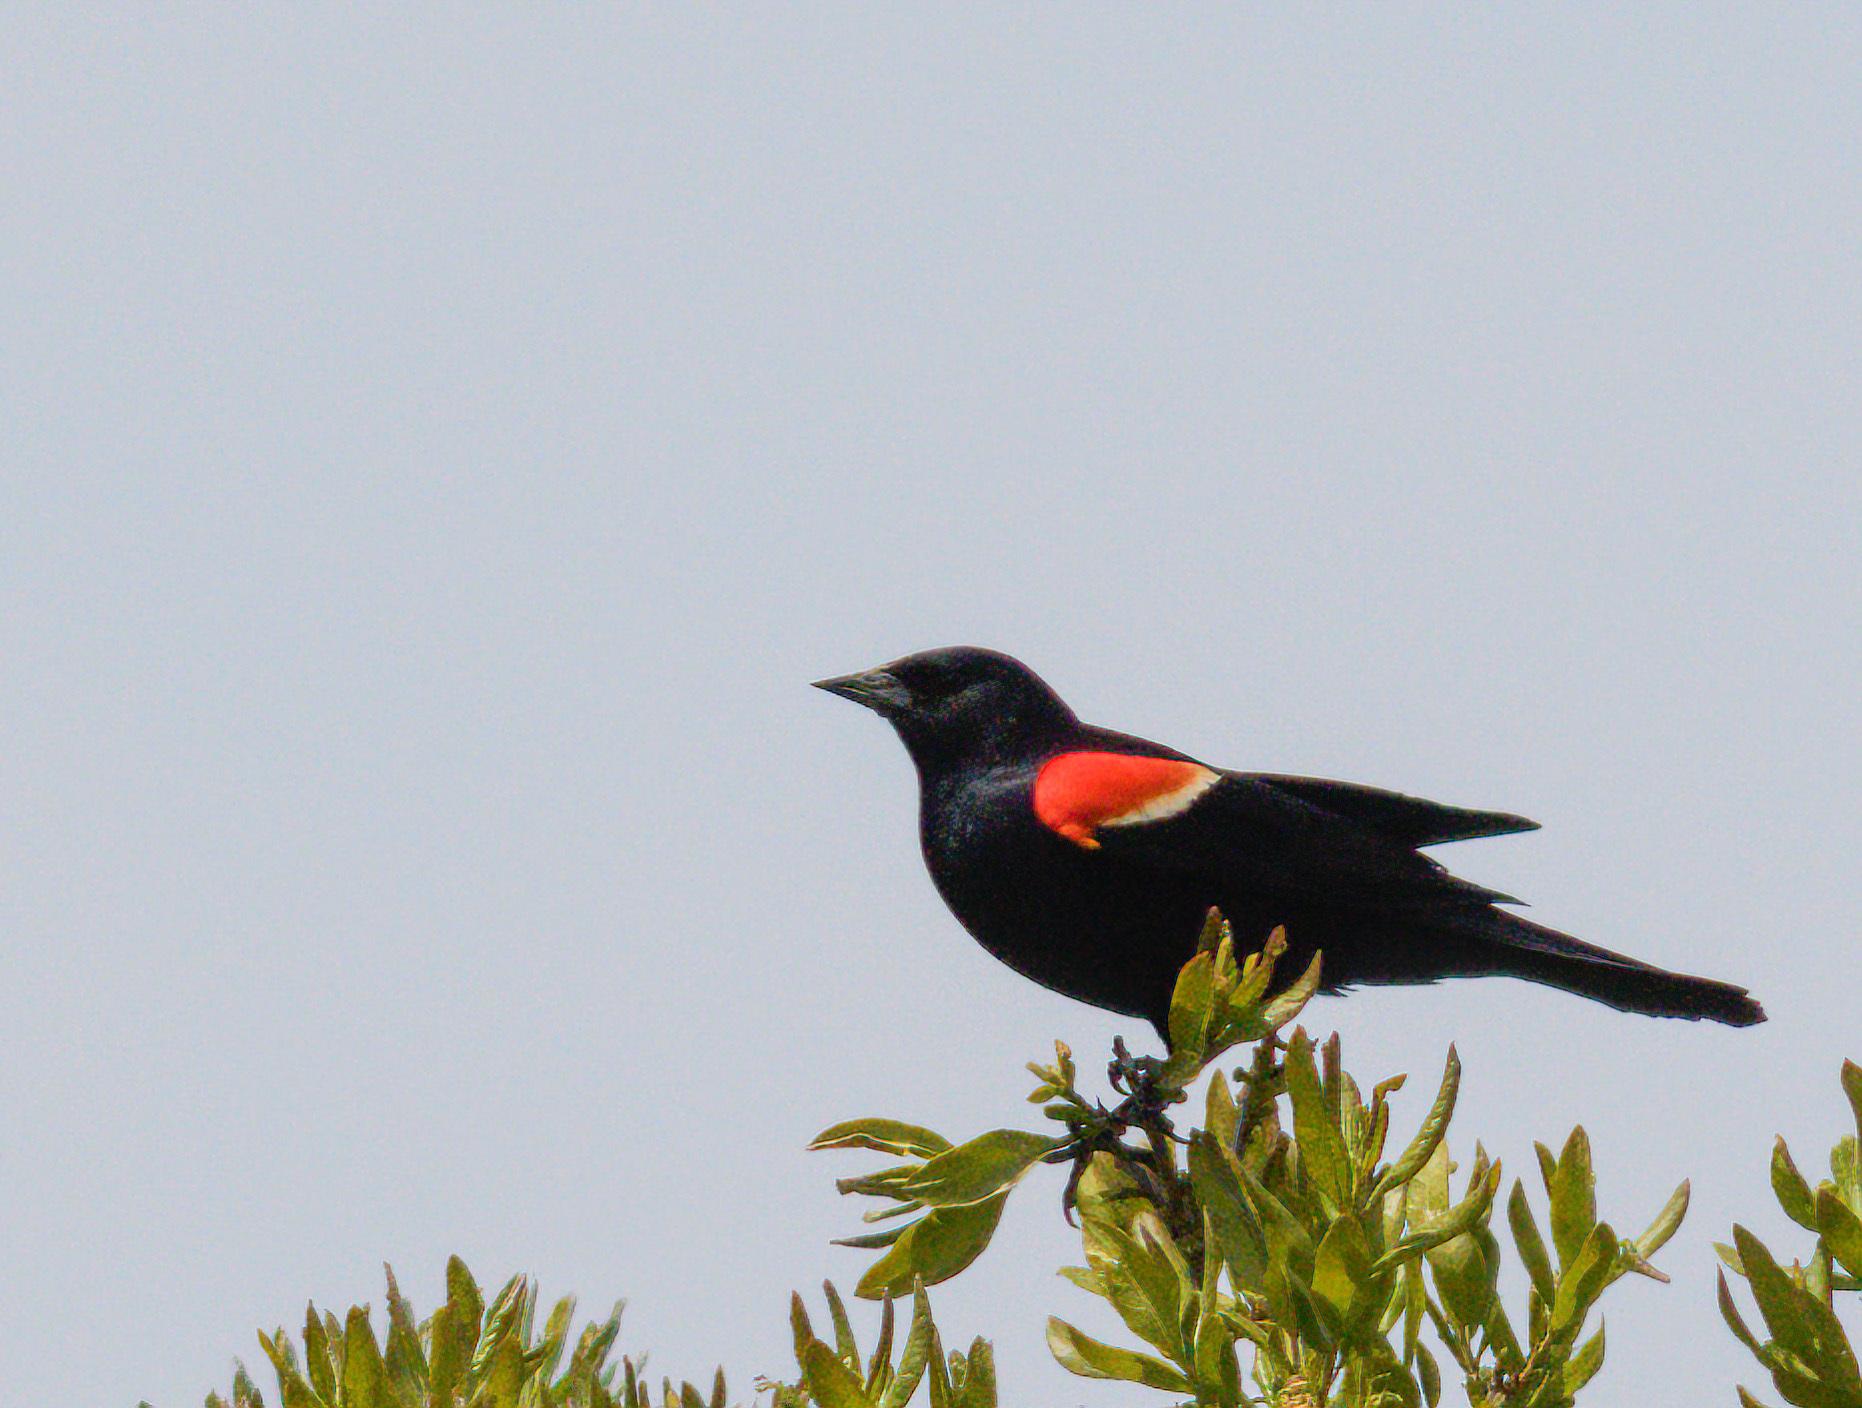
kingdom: Animalia
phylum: Chordata
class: Aves
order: Passeriformes
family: Icteridae
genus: Agelaius
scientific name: Agelaius phoeniceus
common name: Red-winged blackbird
